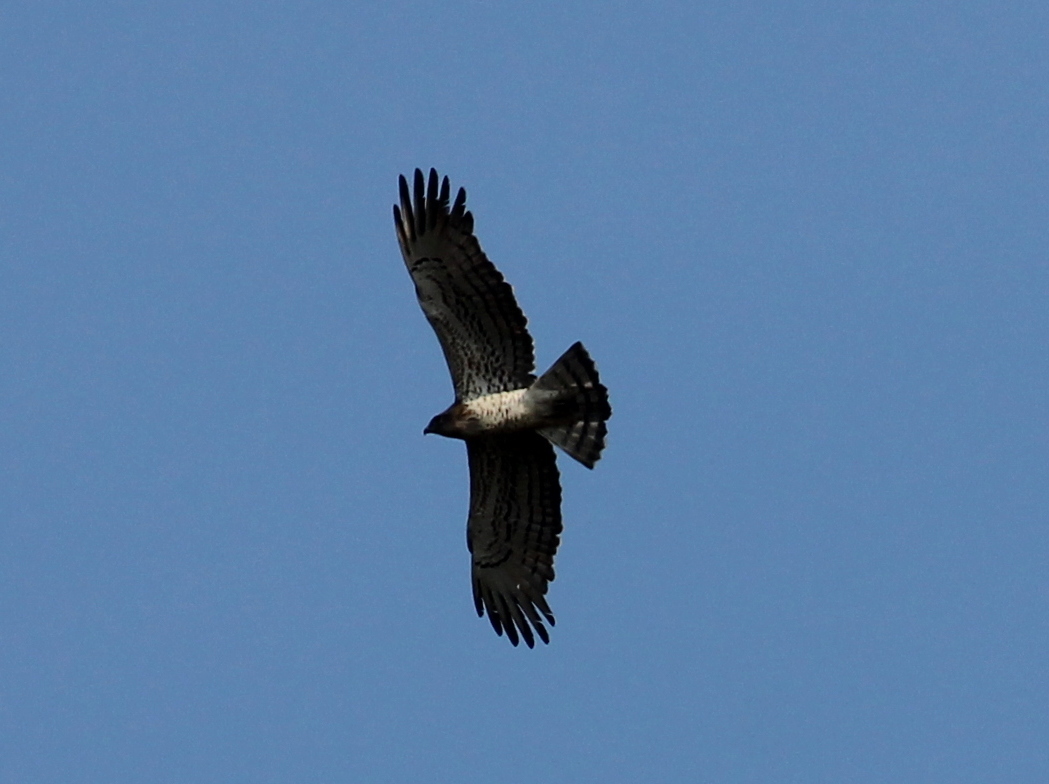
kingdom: Animalia
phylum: Chordata
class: Aves
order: Accipitriformes
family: Accipitridae
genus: Circaetus
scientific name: Circaetus gallicus
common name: Short-toed snake eagle
